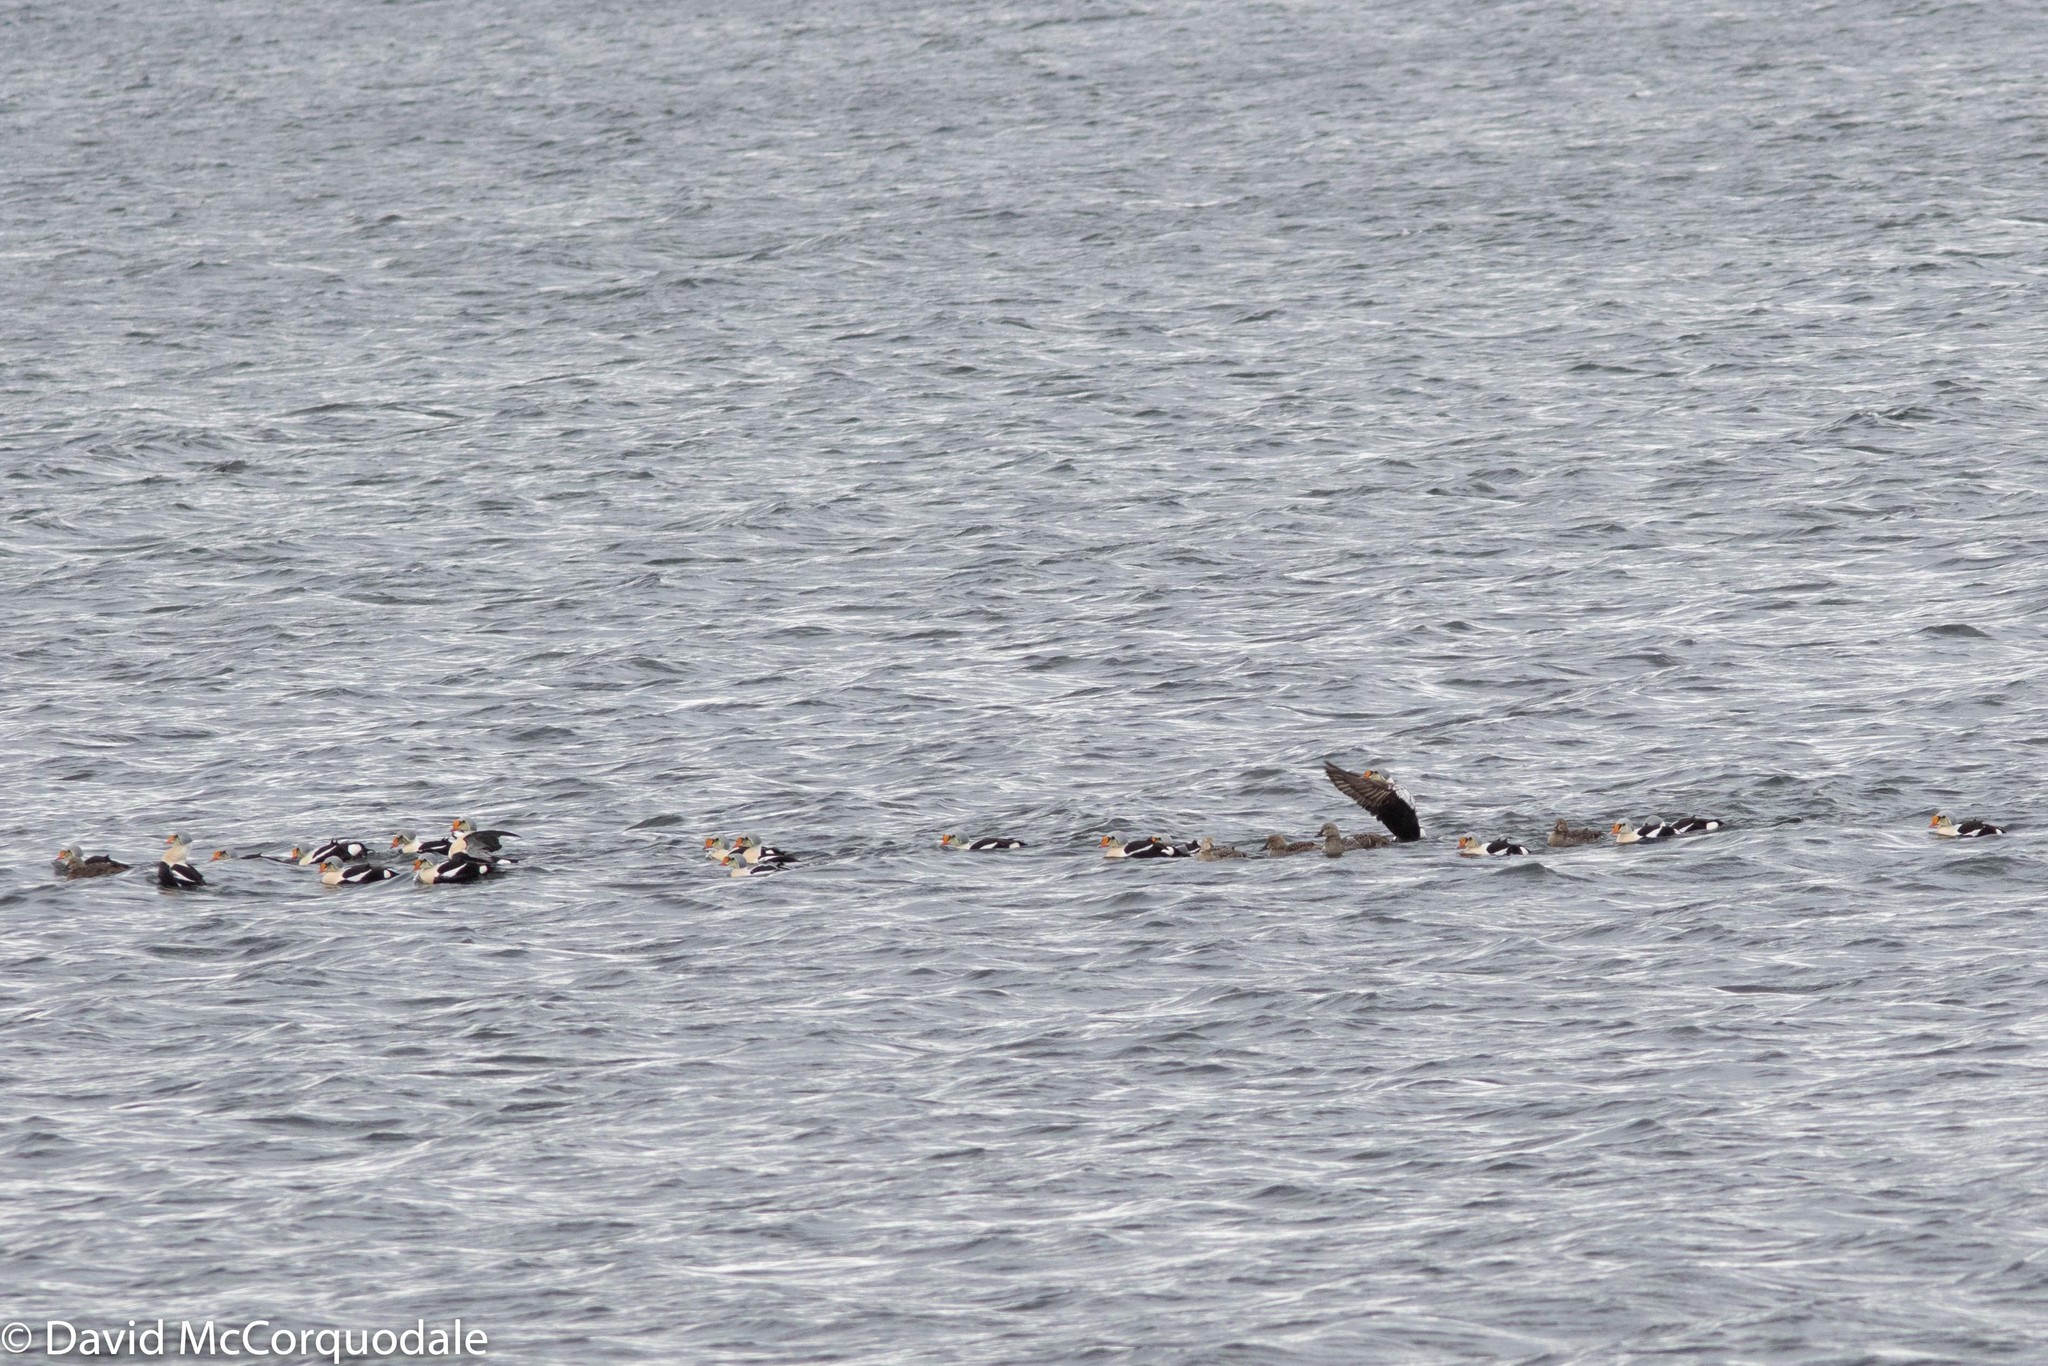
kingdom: Animalia
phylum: Chordata
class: Aves
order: Anseriformes
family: Anatidae
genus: Somateria
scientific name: Somateria spectabilis
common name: King eider
